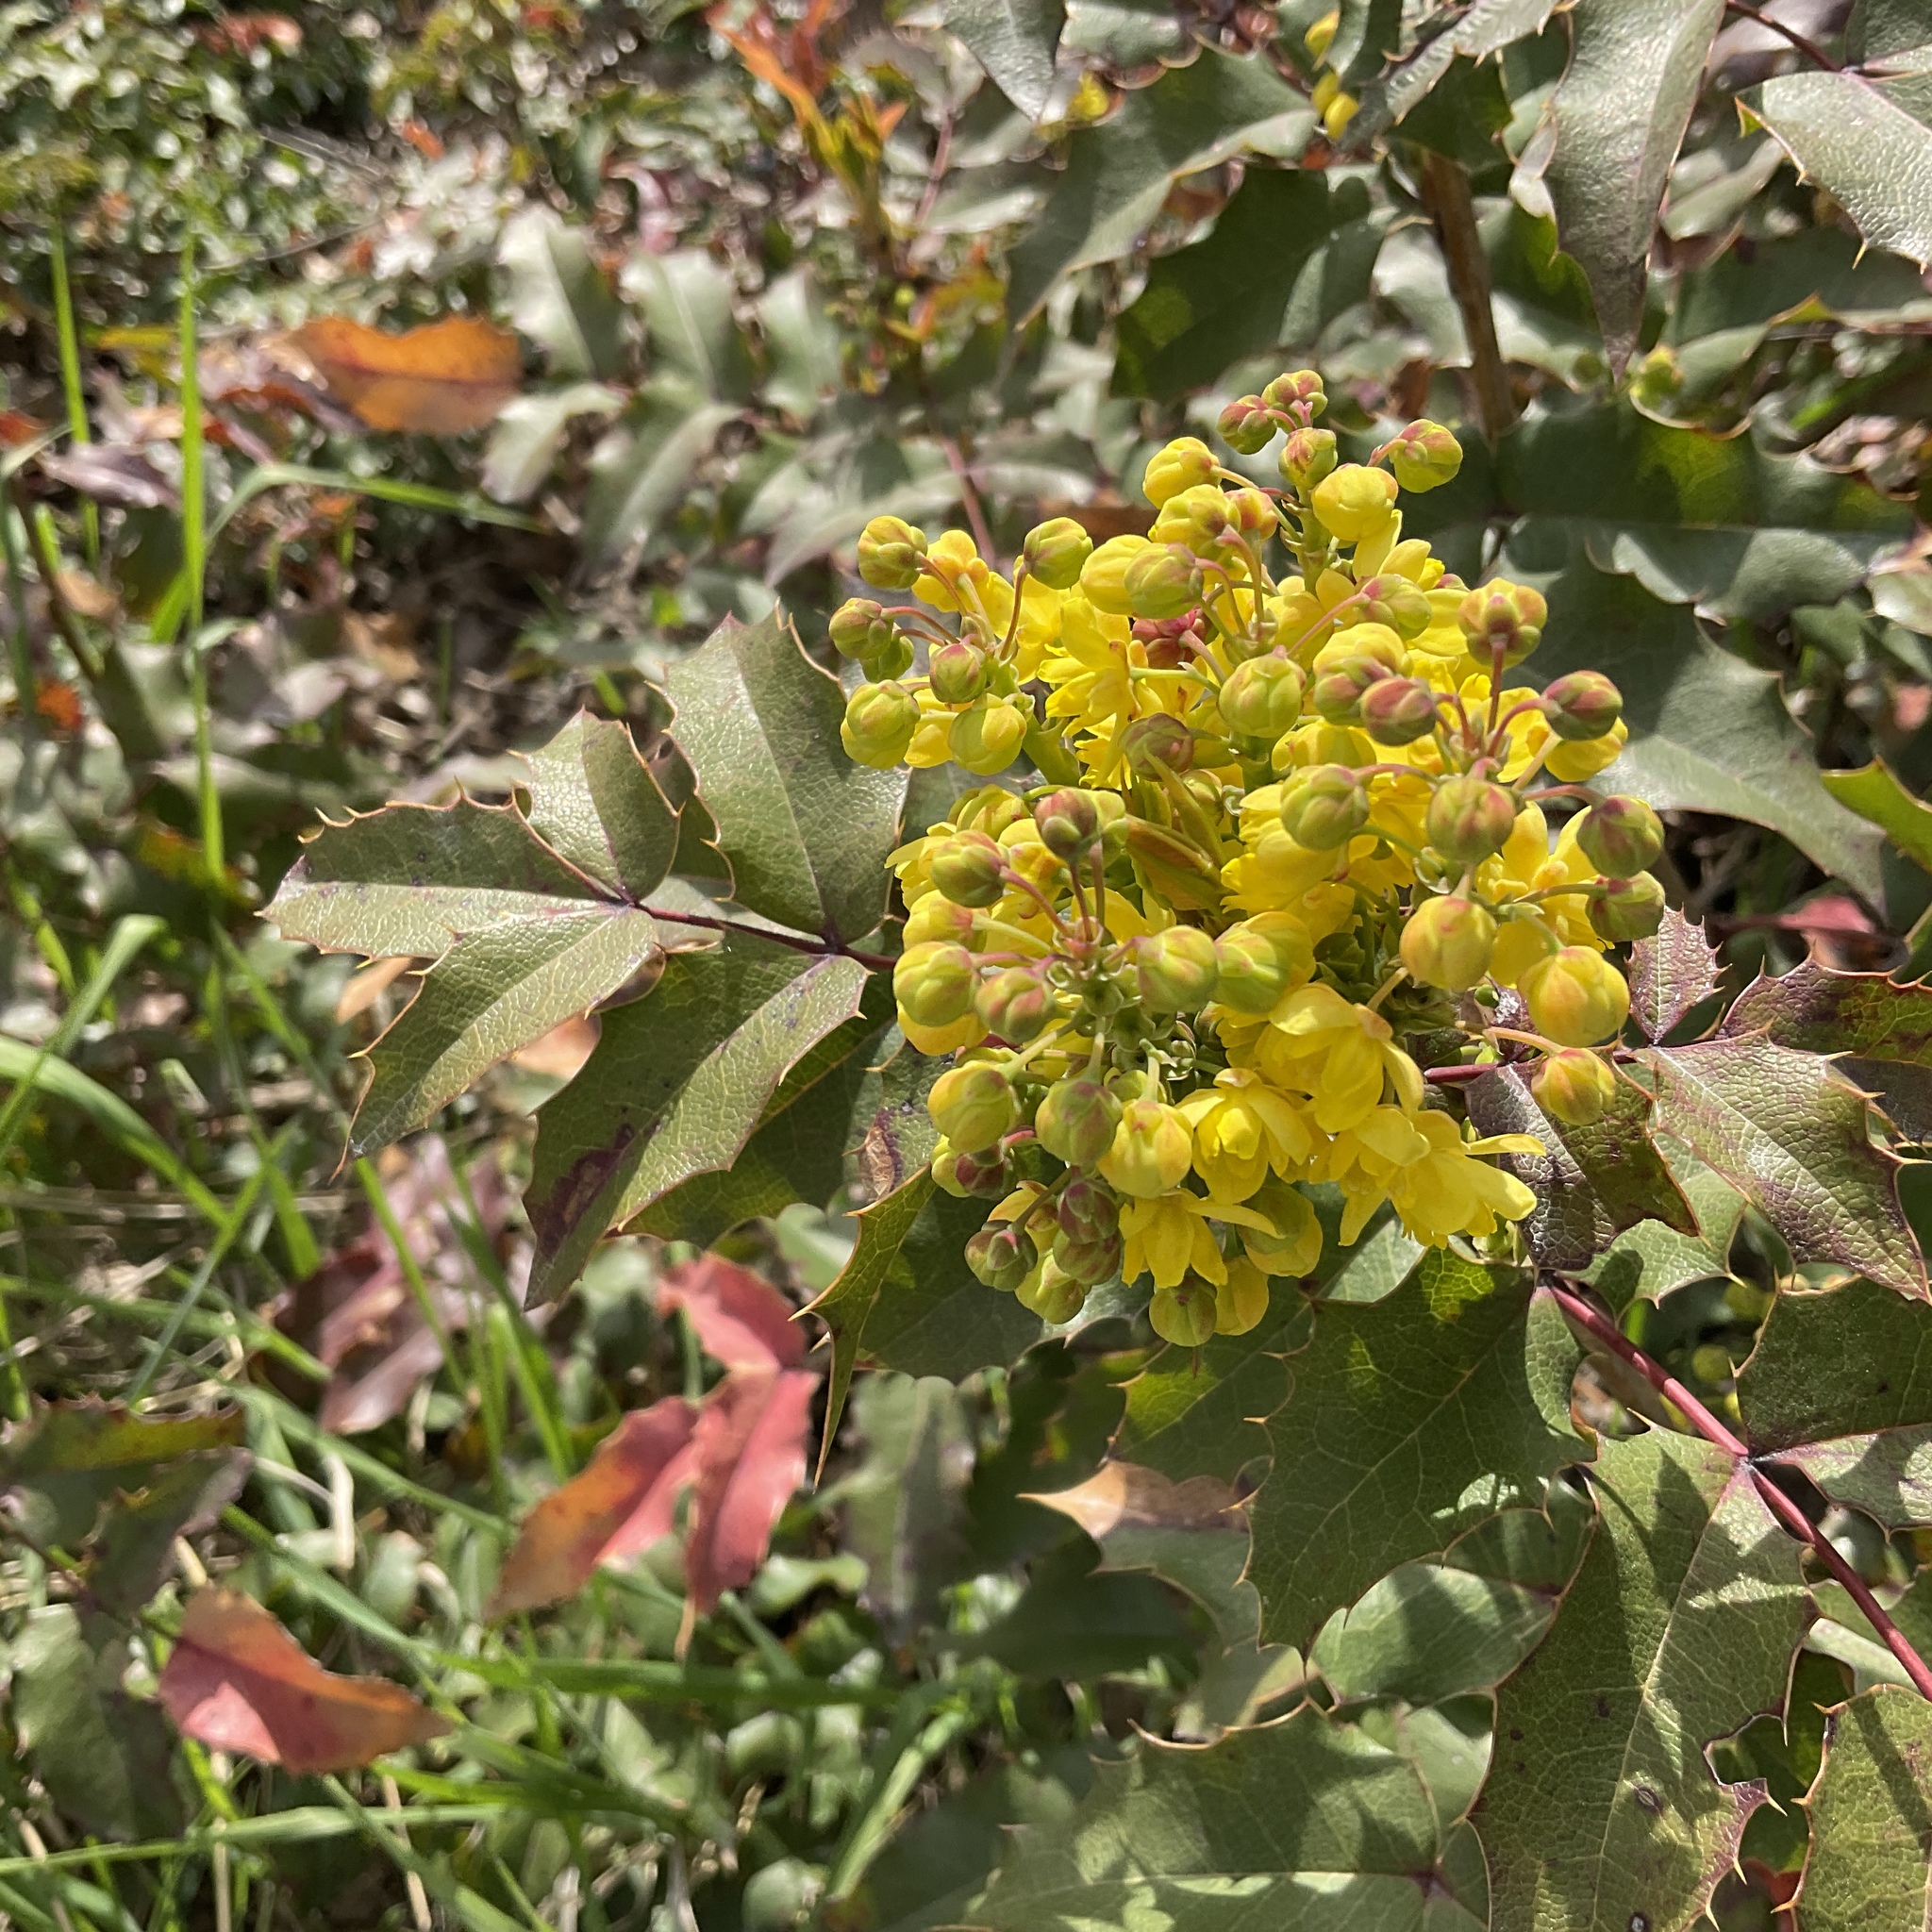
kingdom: Plantae
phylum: Tracheophyta
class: Magnoliopsida
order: Ranunculales
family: Berberidaceae
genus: Mahonia
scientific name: Mahonia aquifolium
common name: Oregon-grape
